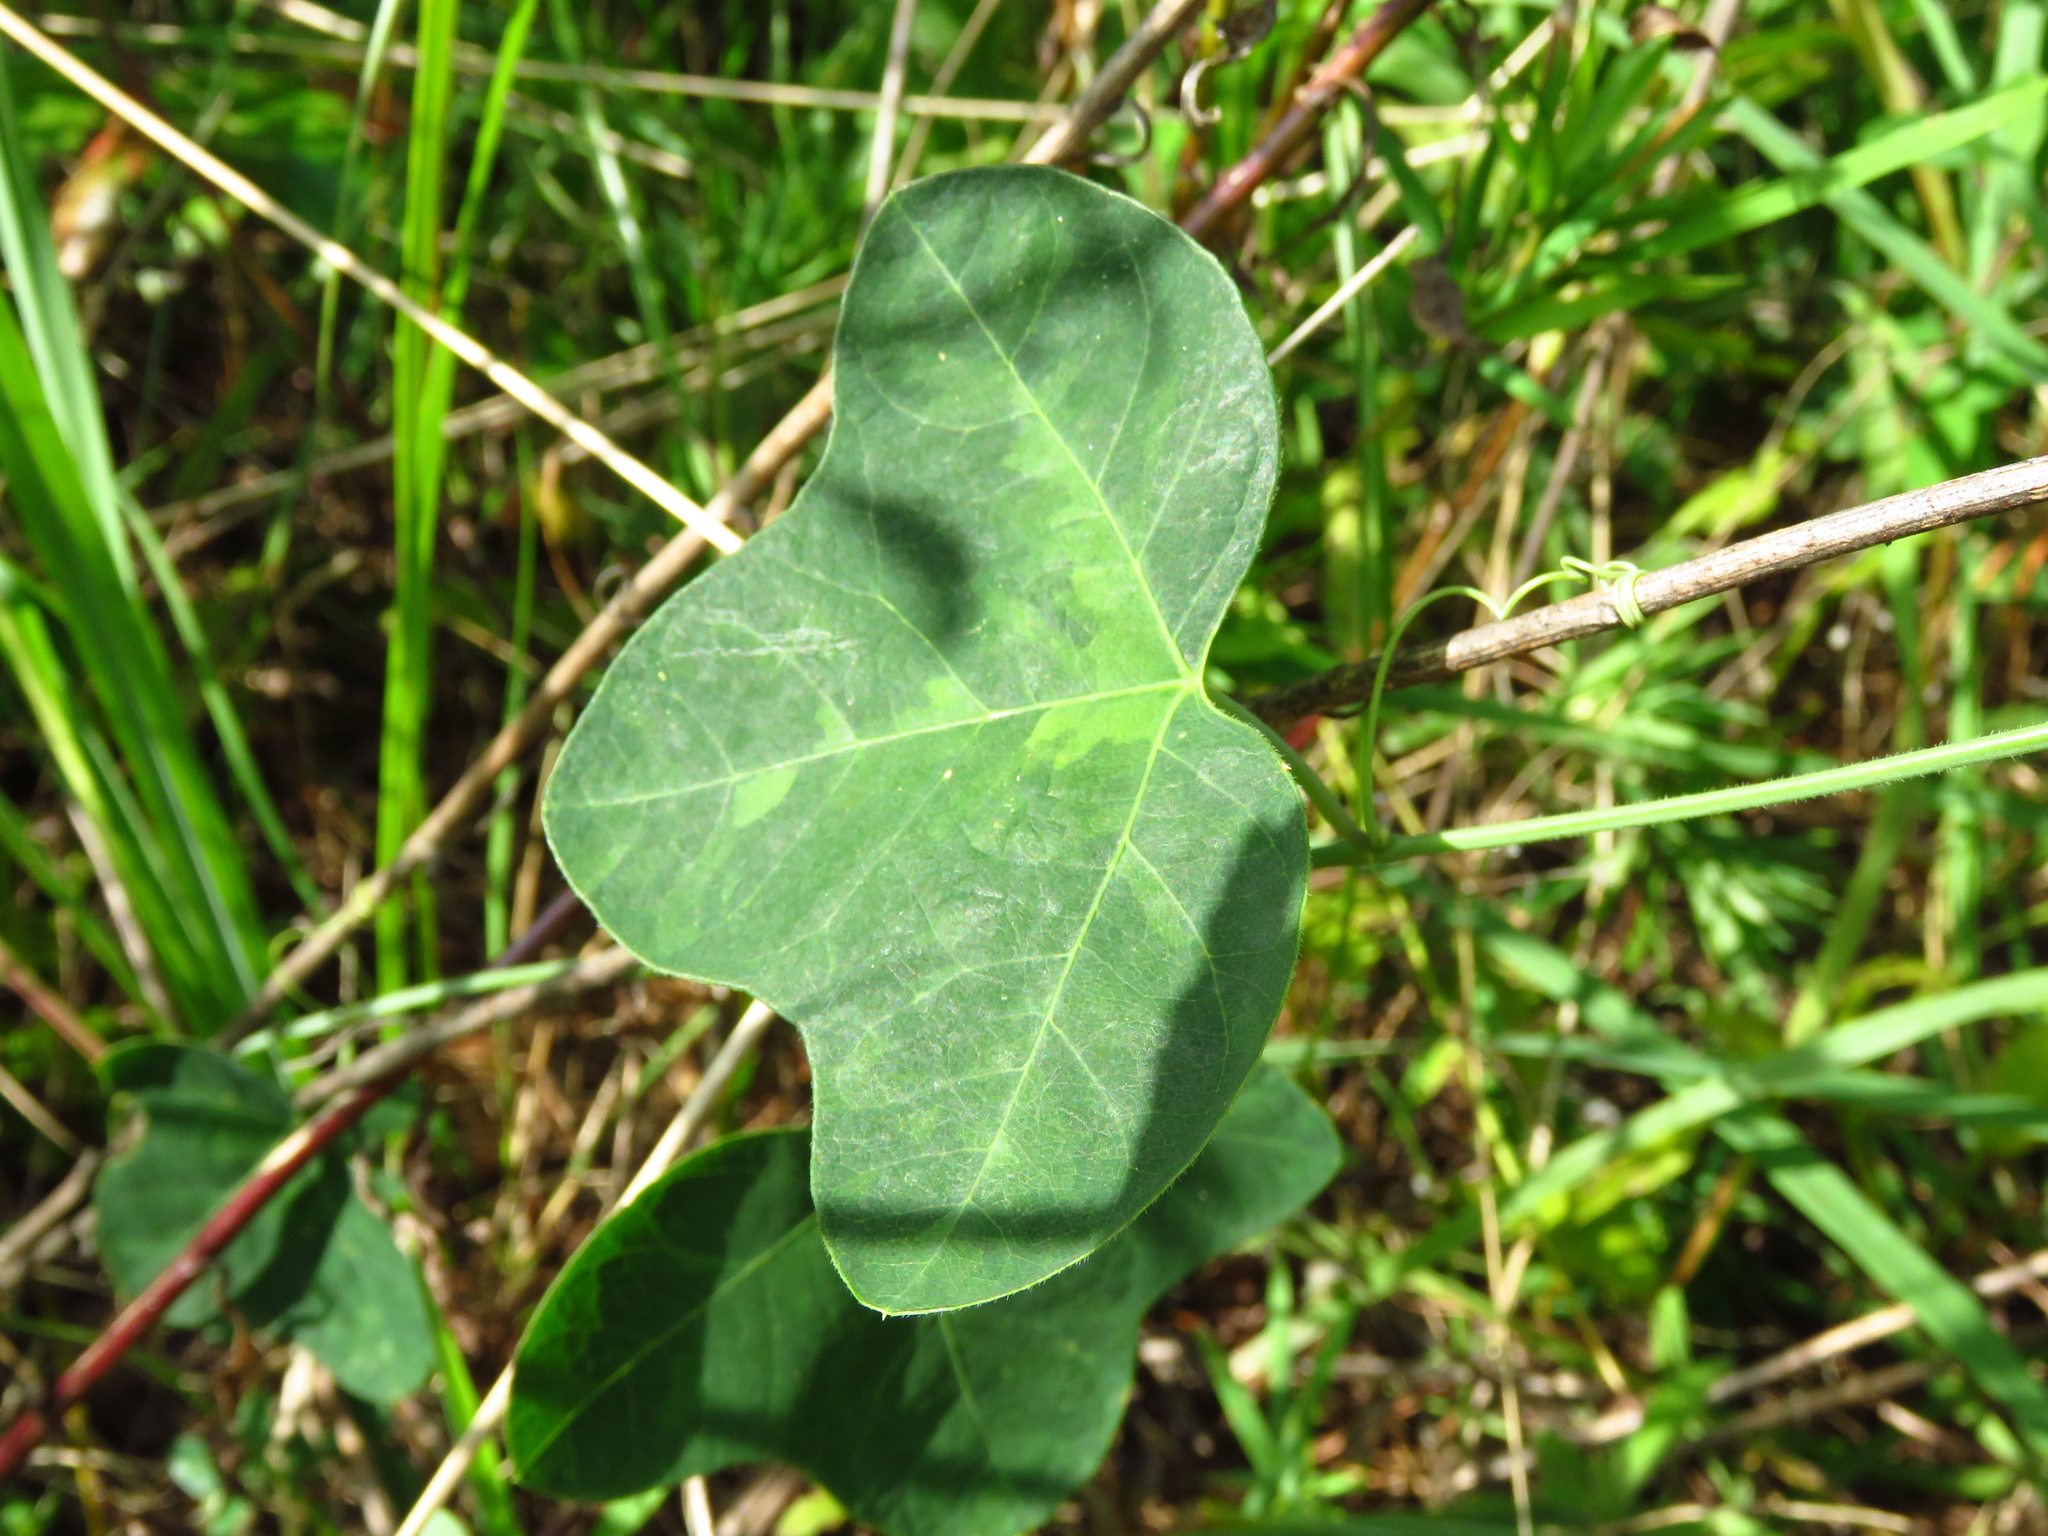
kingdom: Plantae
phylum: Tracheophyta
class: Magnoliopsida
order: Malpighiales
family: Passifloraceae
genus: Passiflora
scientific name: Passiflora lutea
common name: Yellow passionflower
